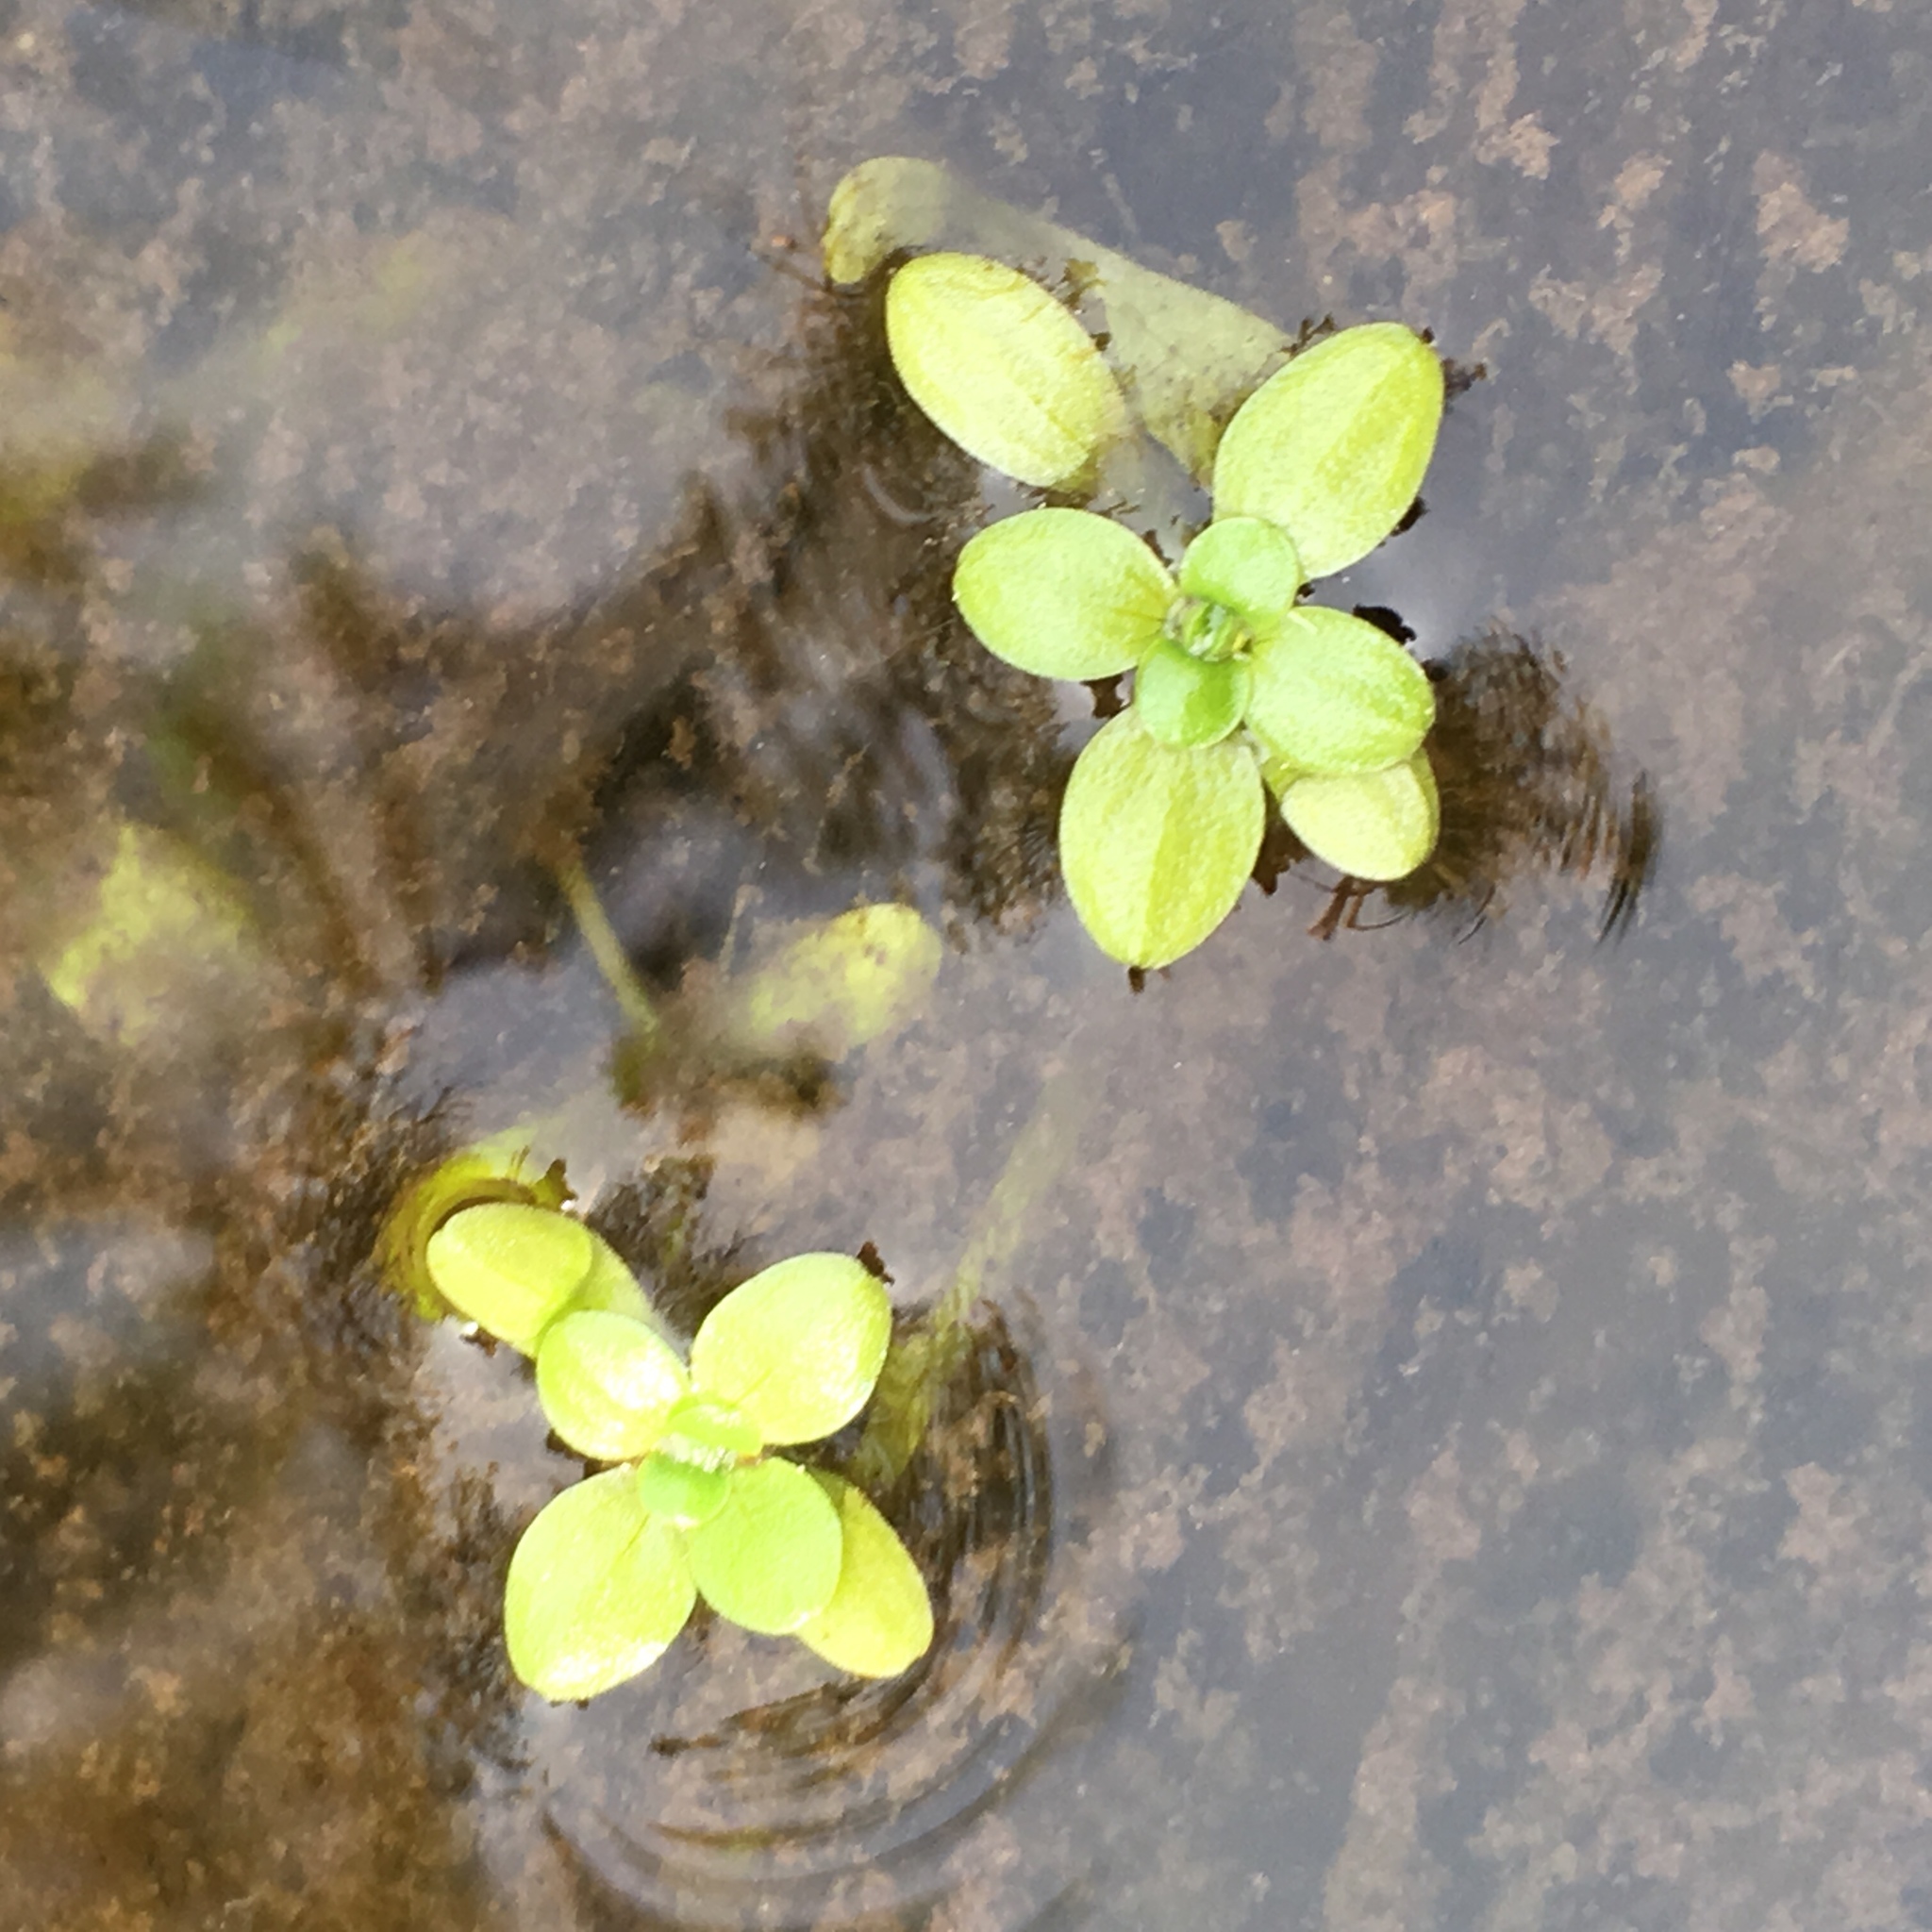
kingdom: Plantae
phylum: Tracheophyta
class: Magnoliopsida
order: Lamiales
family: Plantaginaceae
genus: Callitriche
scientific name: Callitriche stagnalis
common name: Common water-starwort
